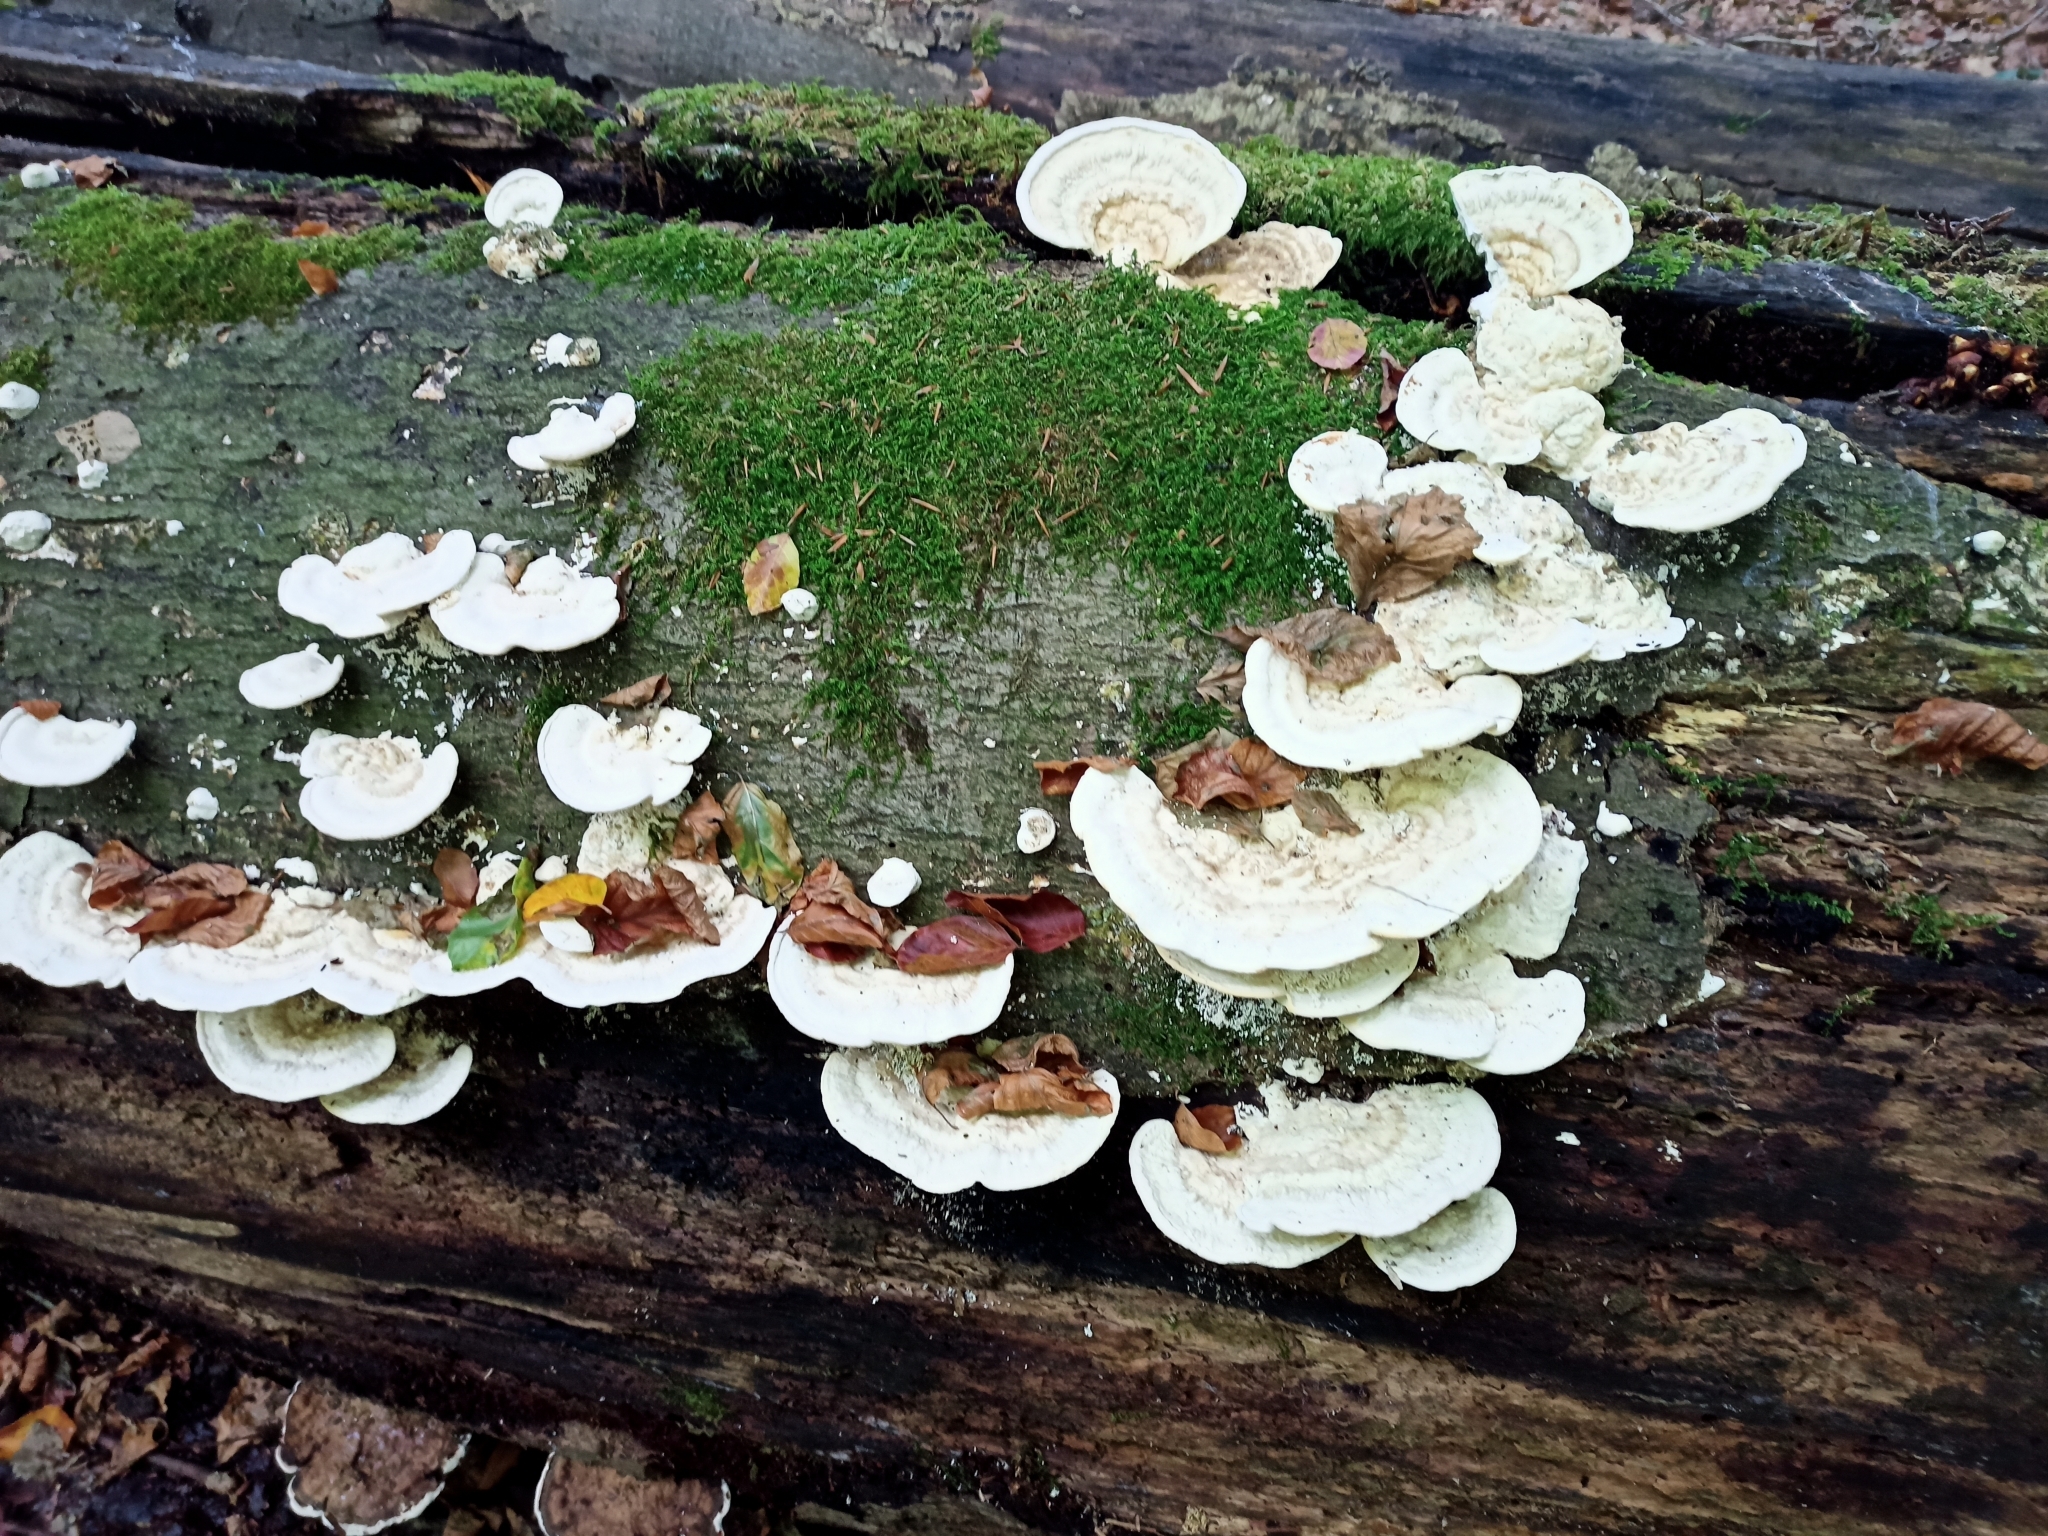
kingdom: Fungi
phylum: Basidiomycota
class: Agaricomycetes
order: Polyporales
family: Polyporaceae
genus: Trametes
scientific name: Trametes gibbosa
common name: Lumpy bracket
